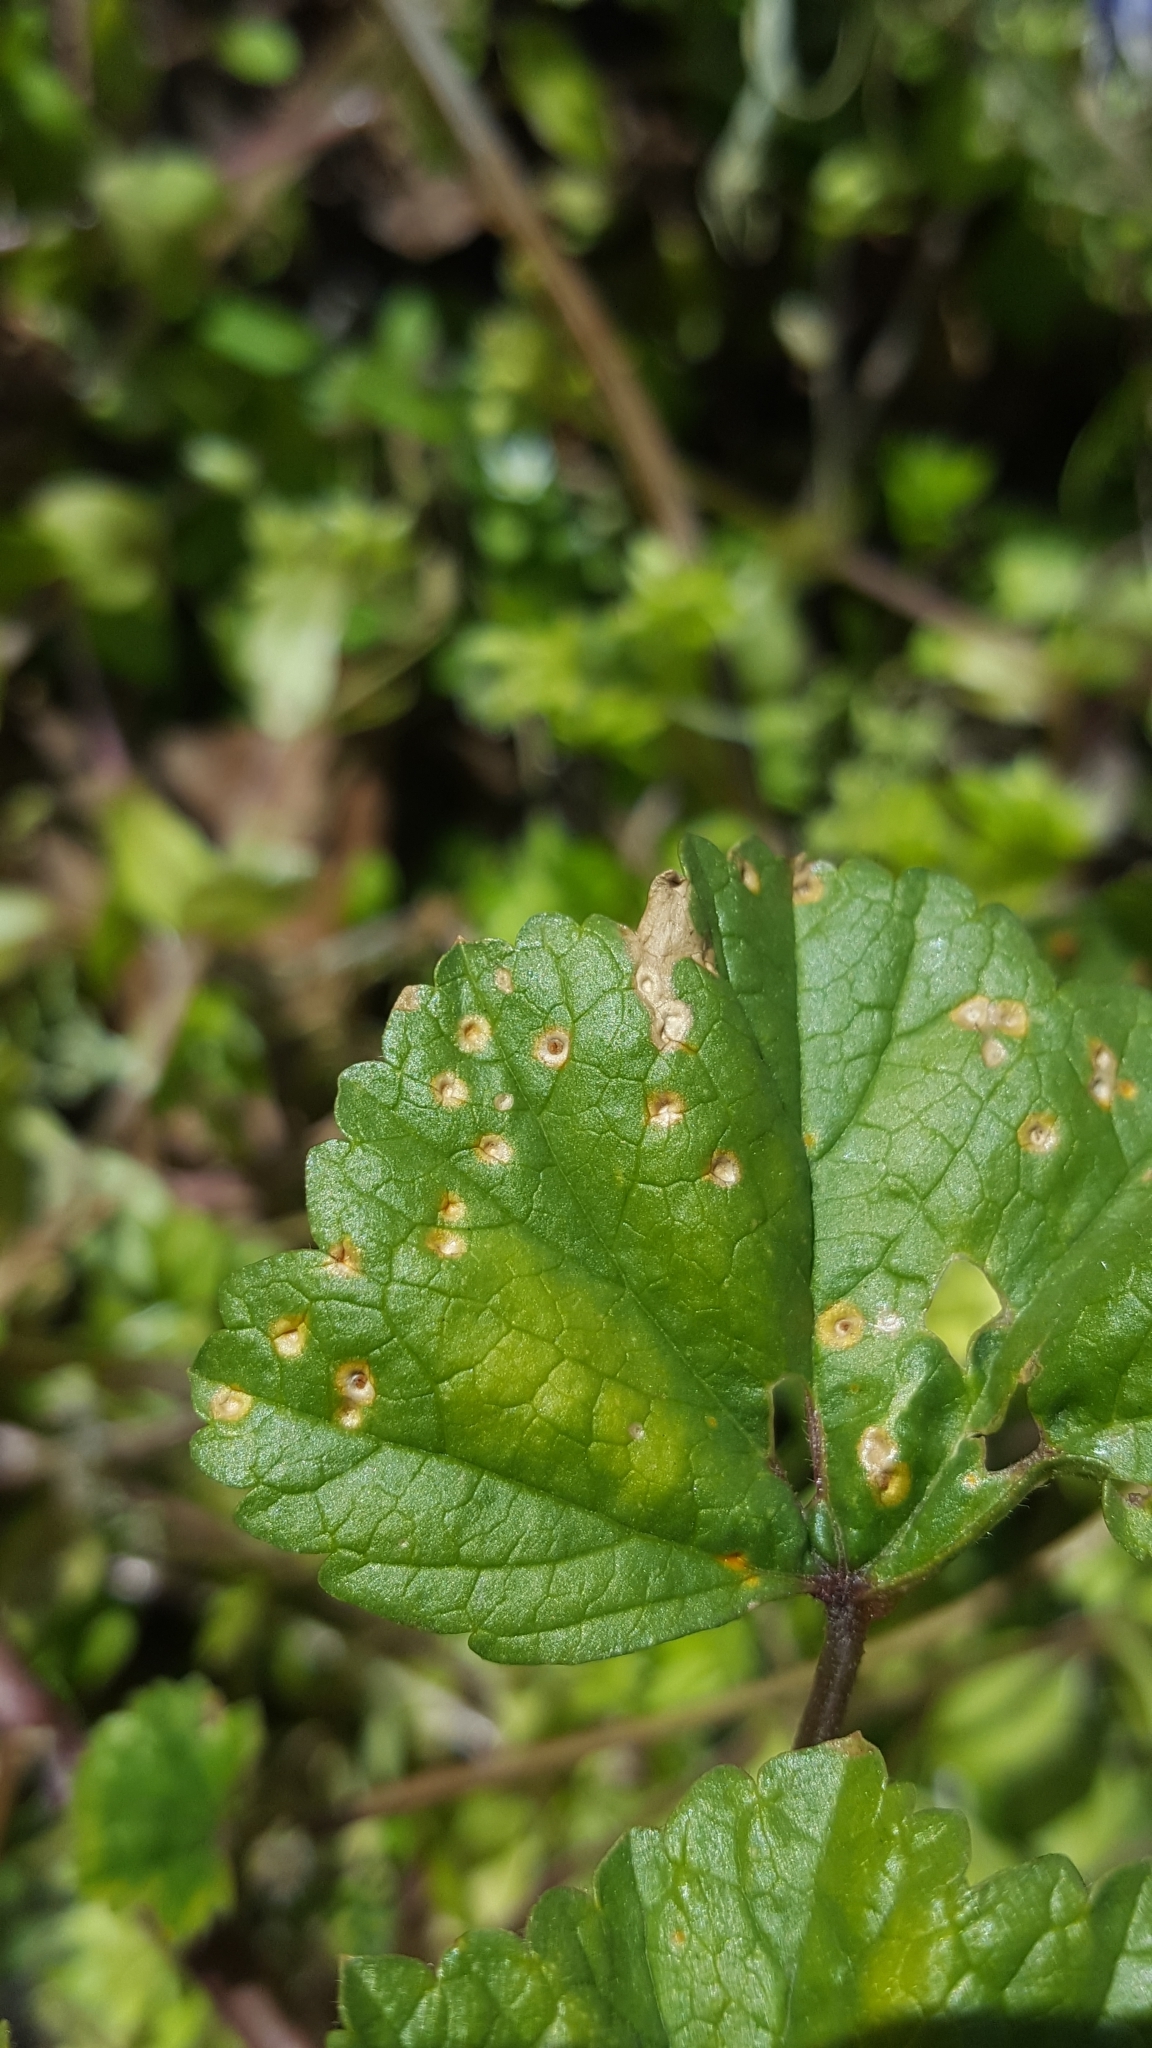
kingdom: Fungi
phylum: Basidiomycota
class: Pucciniomycetes
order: Pucciniales
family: Pucciniaceae
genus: Puccinia
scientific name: Puccinia malvacearum
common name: Hollyhock rust
